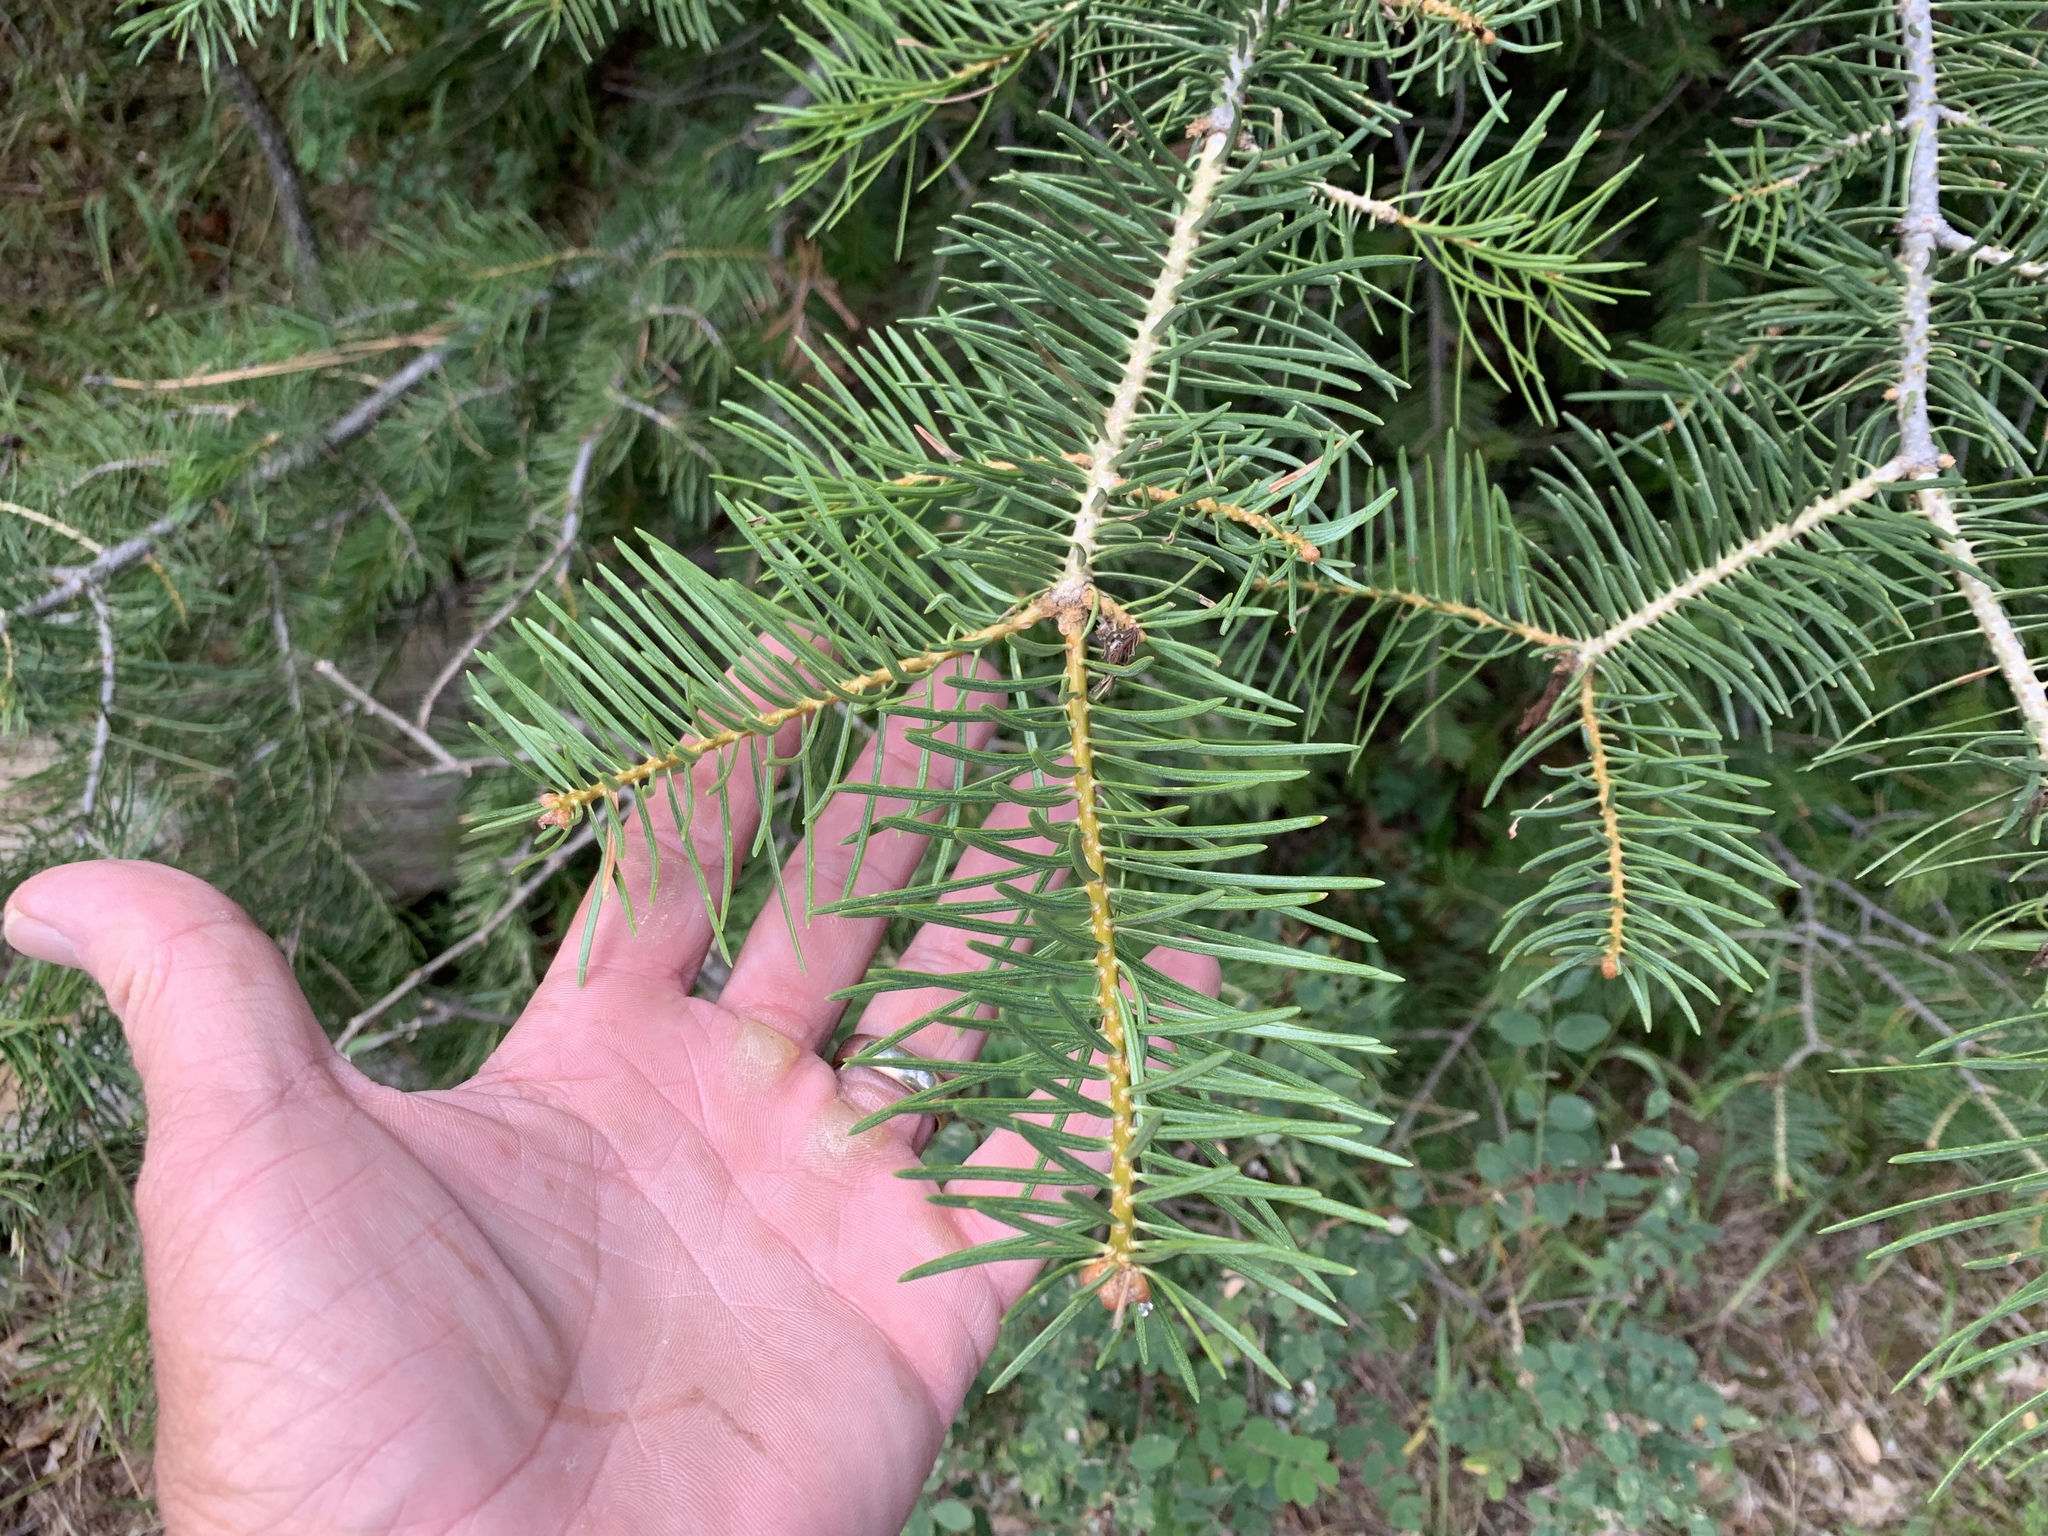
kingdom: Plantae
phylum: Tracheophyta
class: Pinopsida
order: Pinales
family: Pinaceae
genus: Abies
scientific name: Abies concolor
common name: Colorado fir
